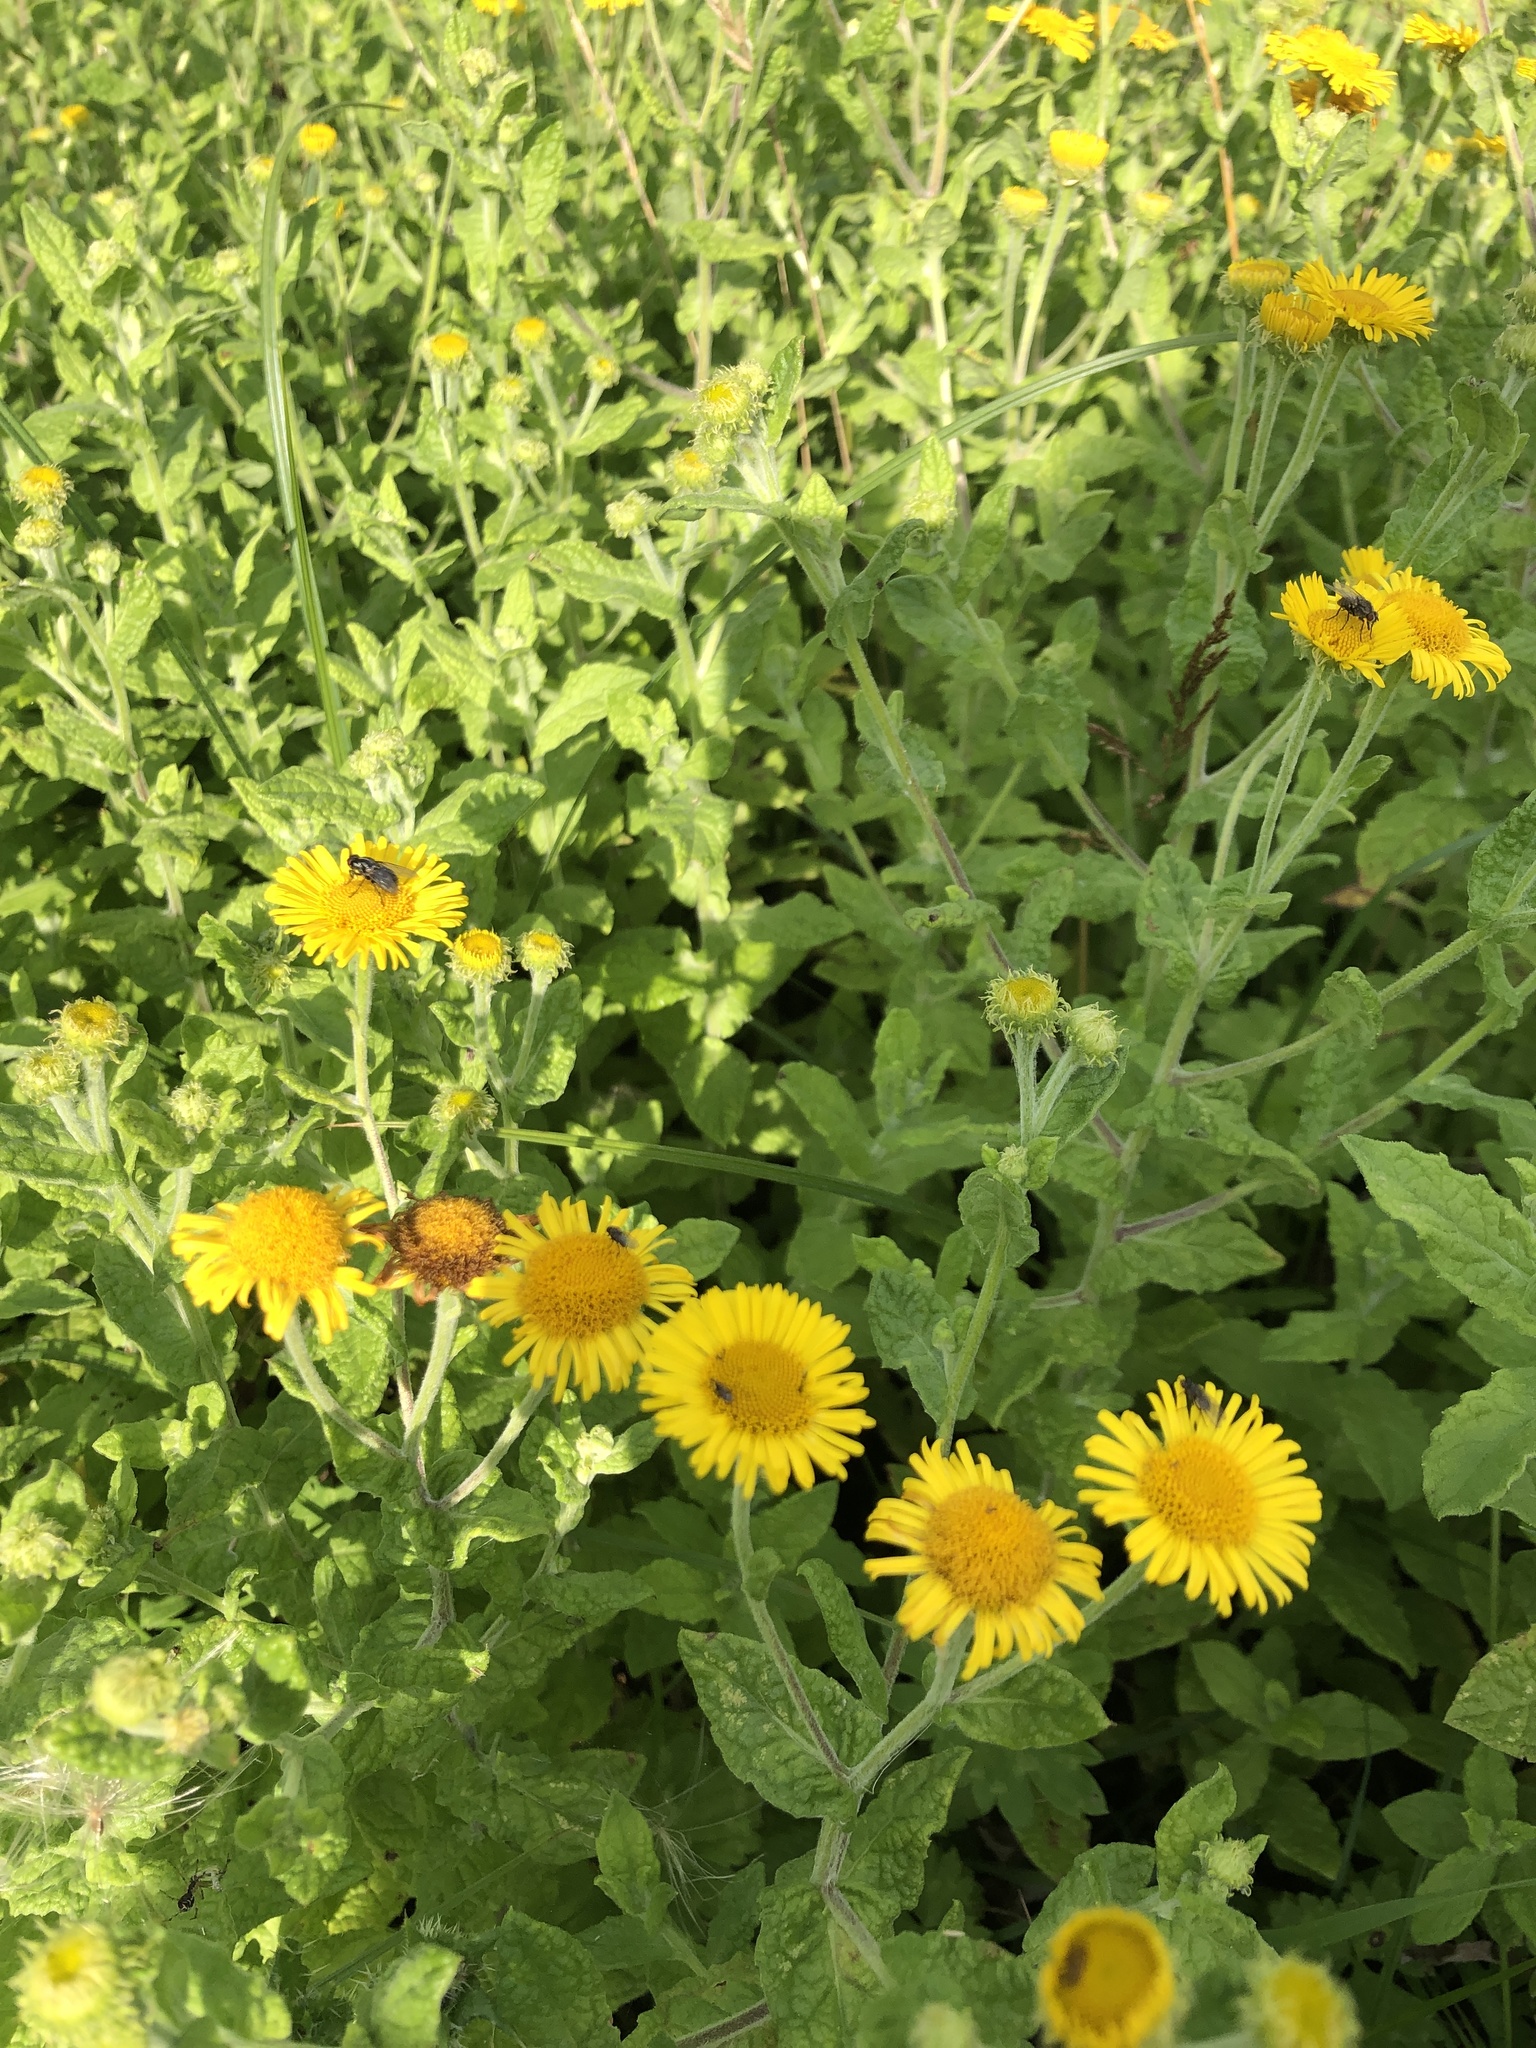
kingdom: Plantae
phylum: Tracheophyta
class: Magnoliopsida
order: Asterales
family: Asteraceae
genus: Pulicaria
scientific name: Pulicaria dysenterica
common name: Common fleabane
